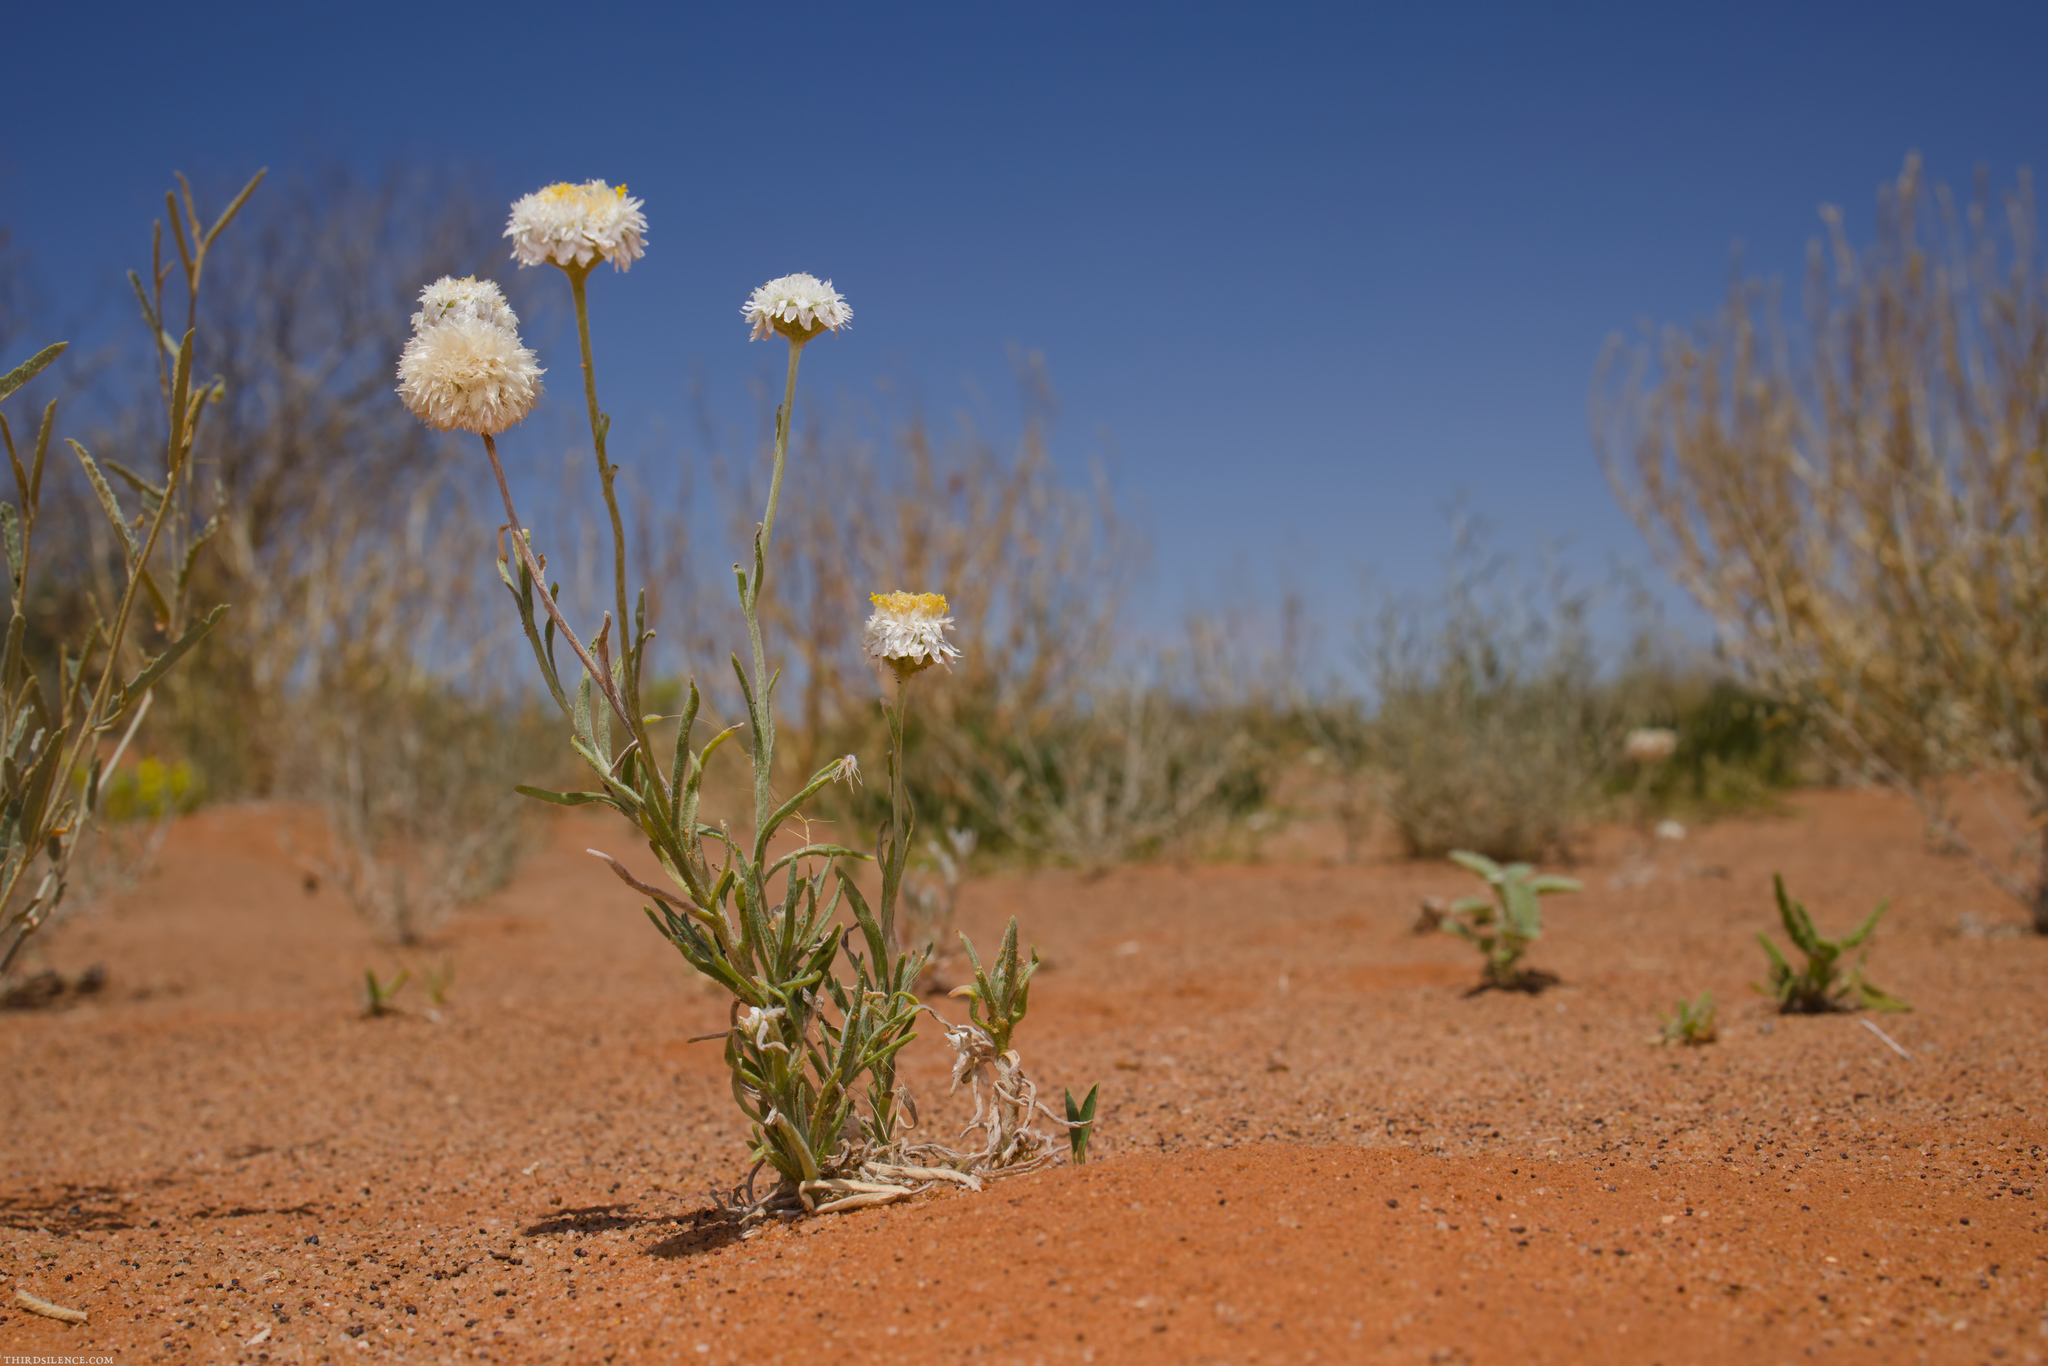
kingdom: Plantae
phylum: Tracheophyta
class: Magnoliopsida
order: Asterales
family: Asteraceae
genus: Polycalymma
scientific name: Polycalymma stuartii
